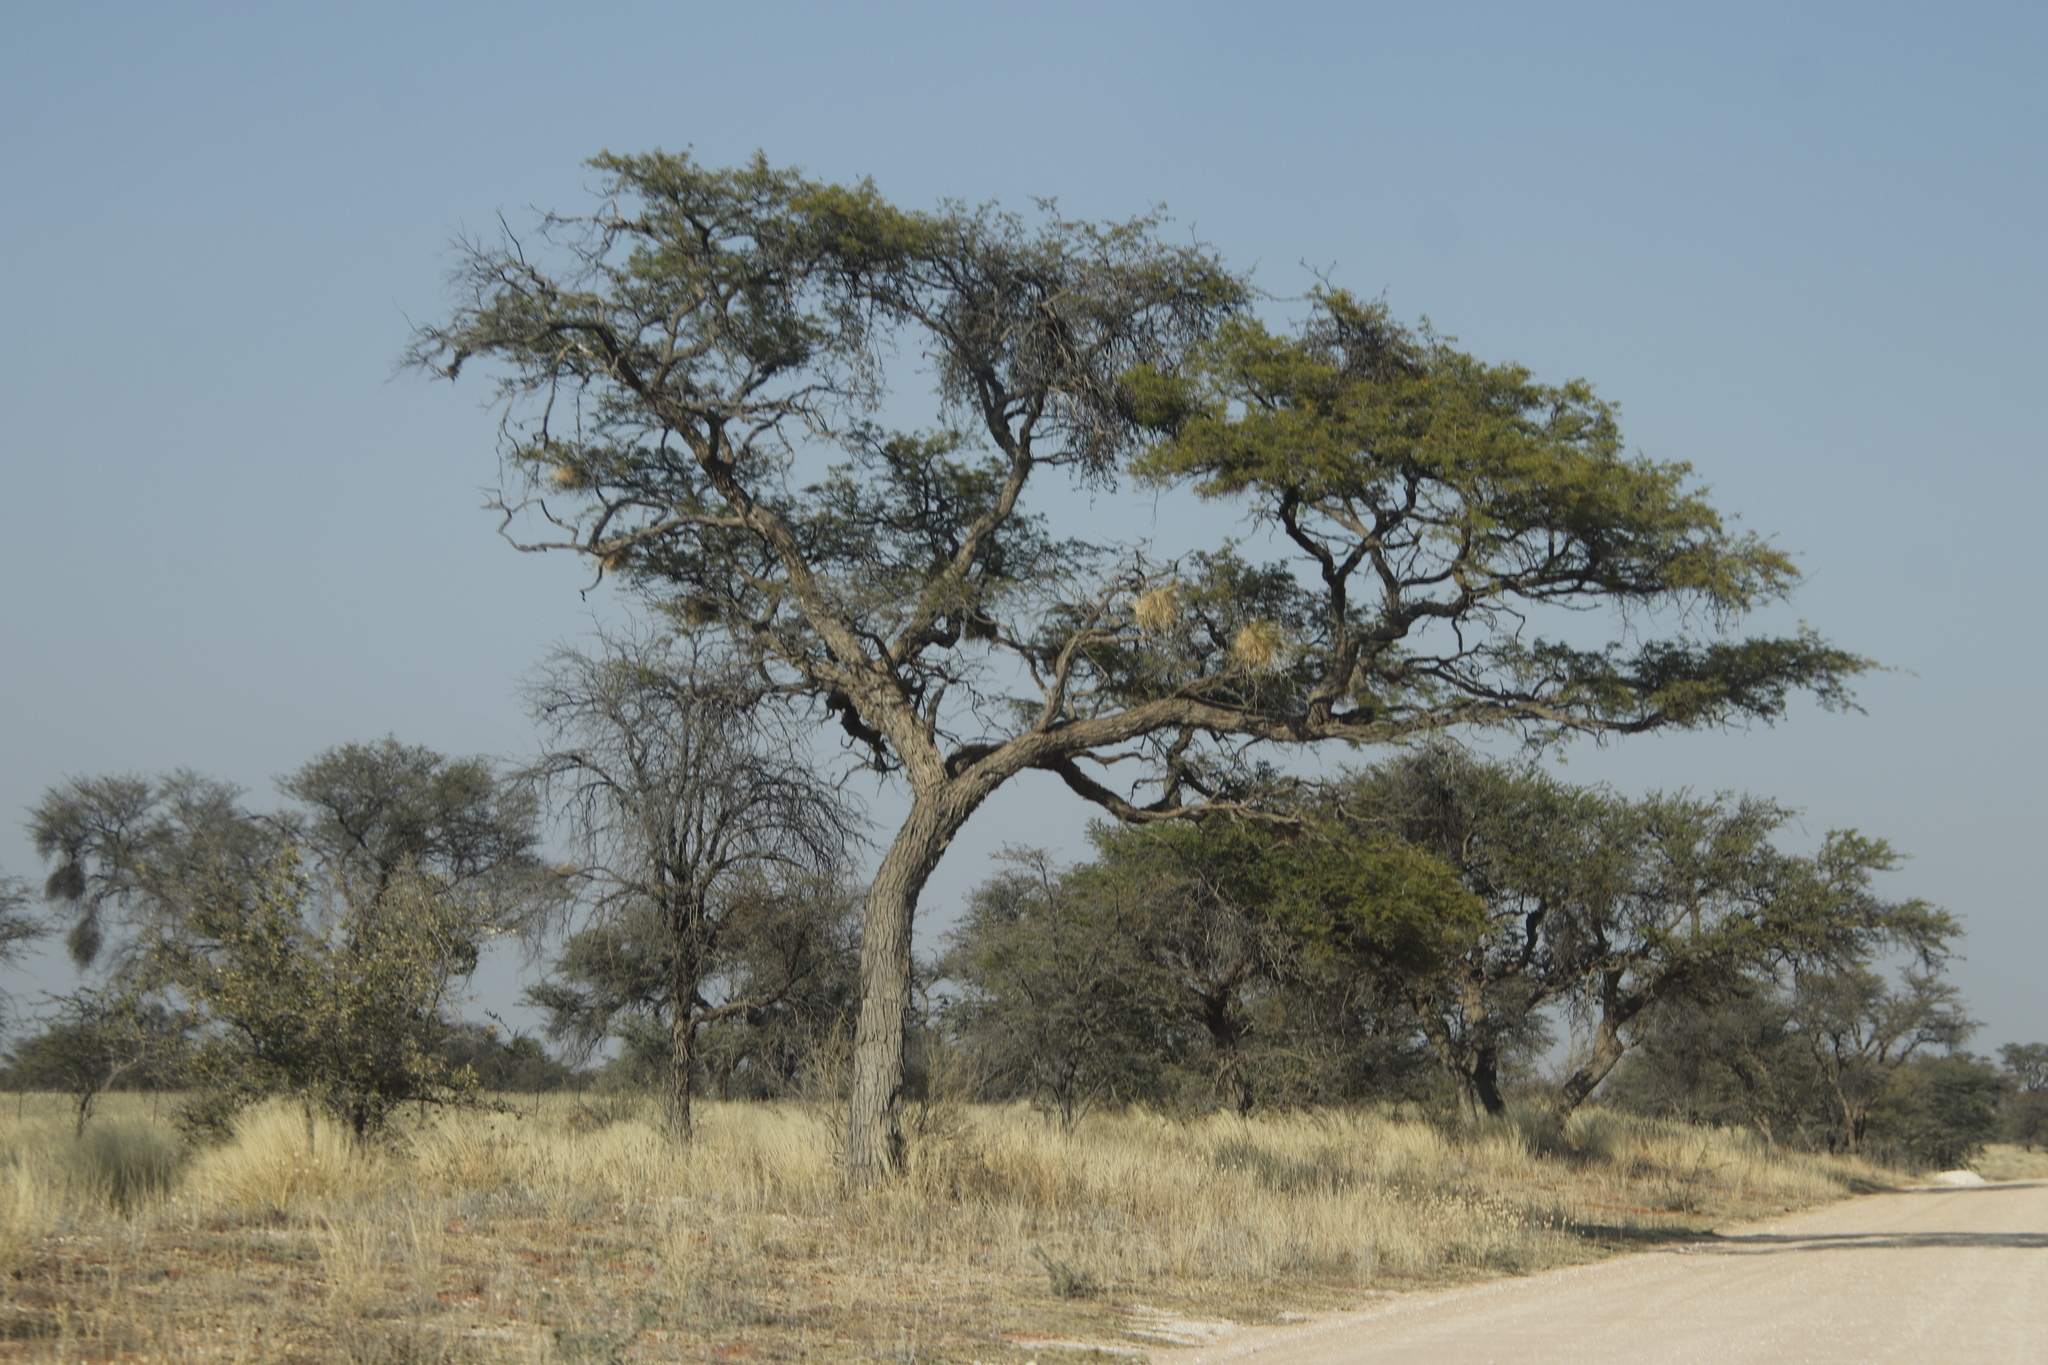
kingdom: Animalia
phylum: Chordata
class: Aves
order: Passeriformes
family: Passeridae
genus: Plocepasser
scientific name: Plocepasser mahali
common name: White-browed sparrow-weaver
